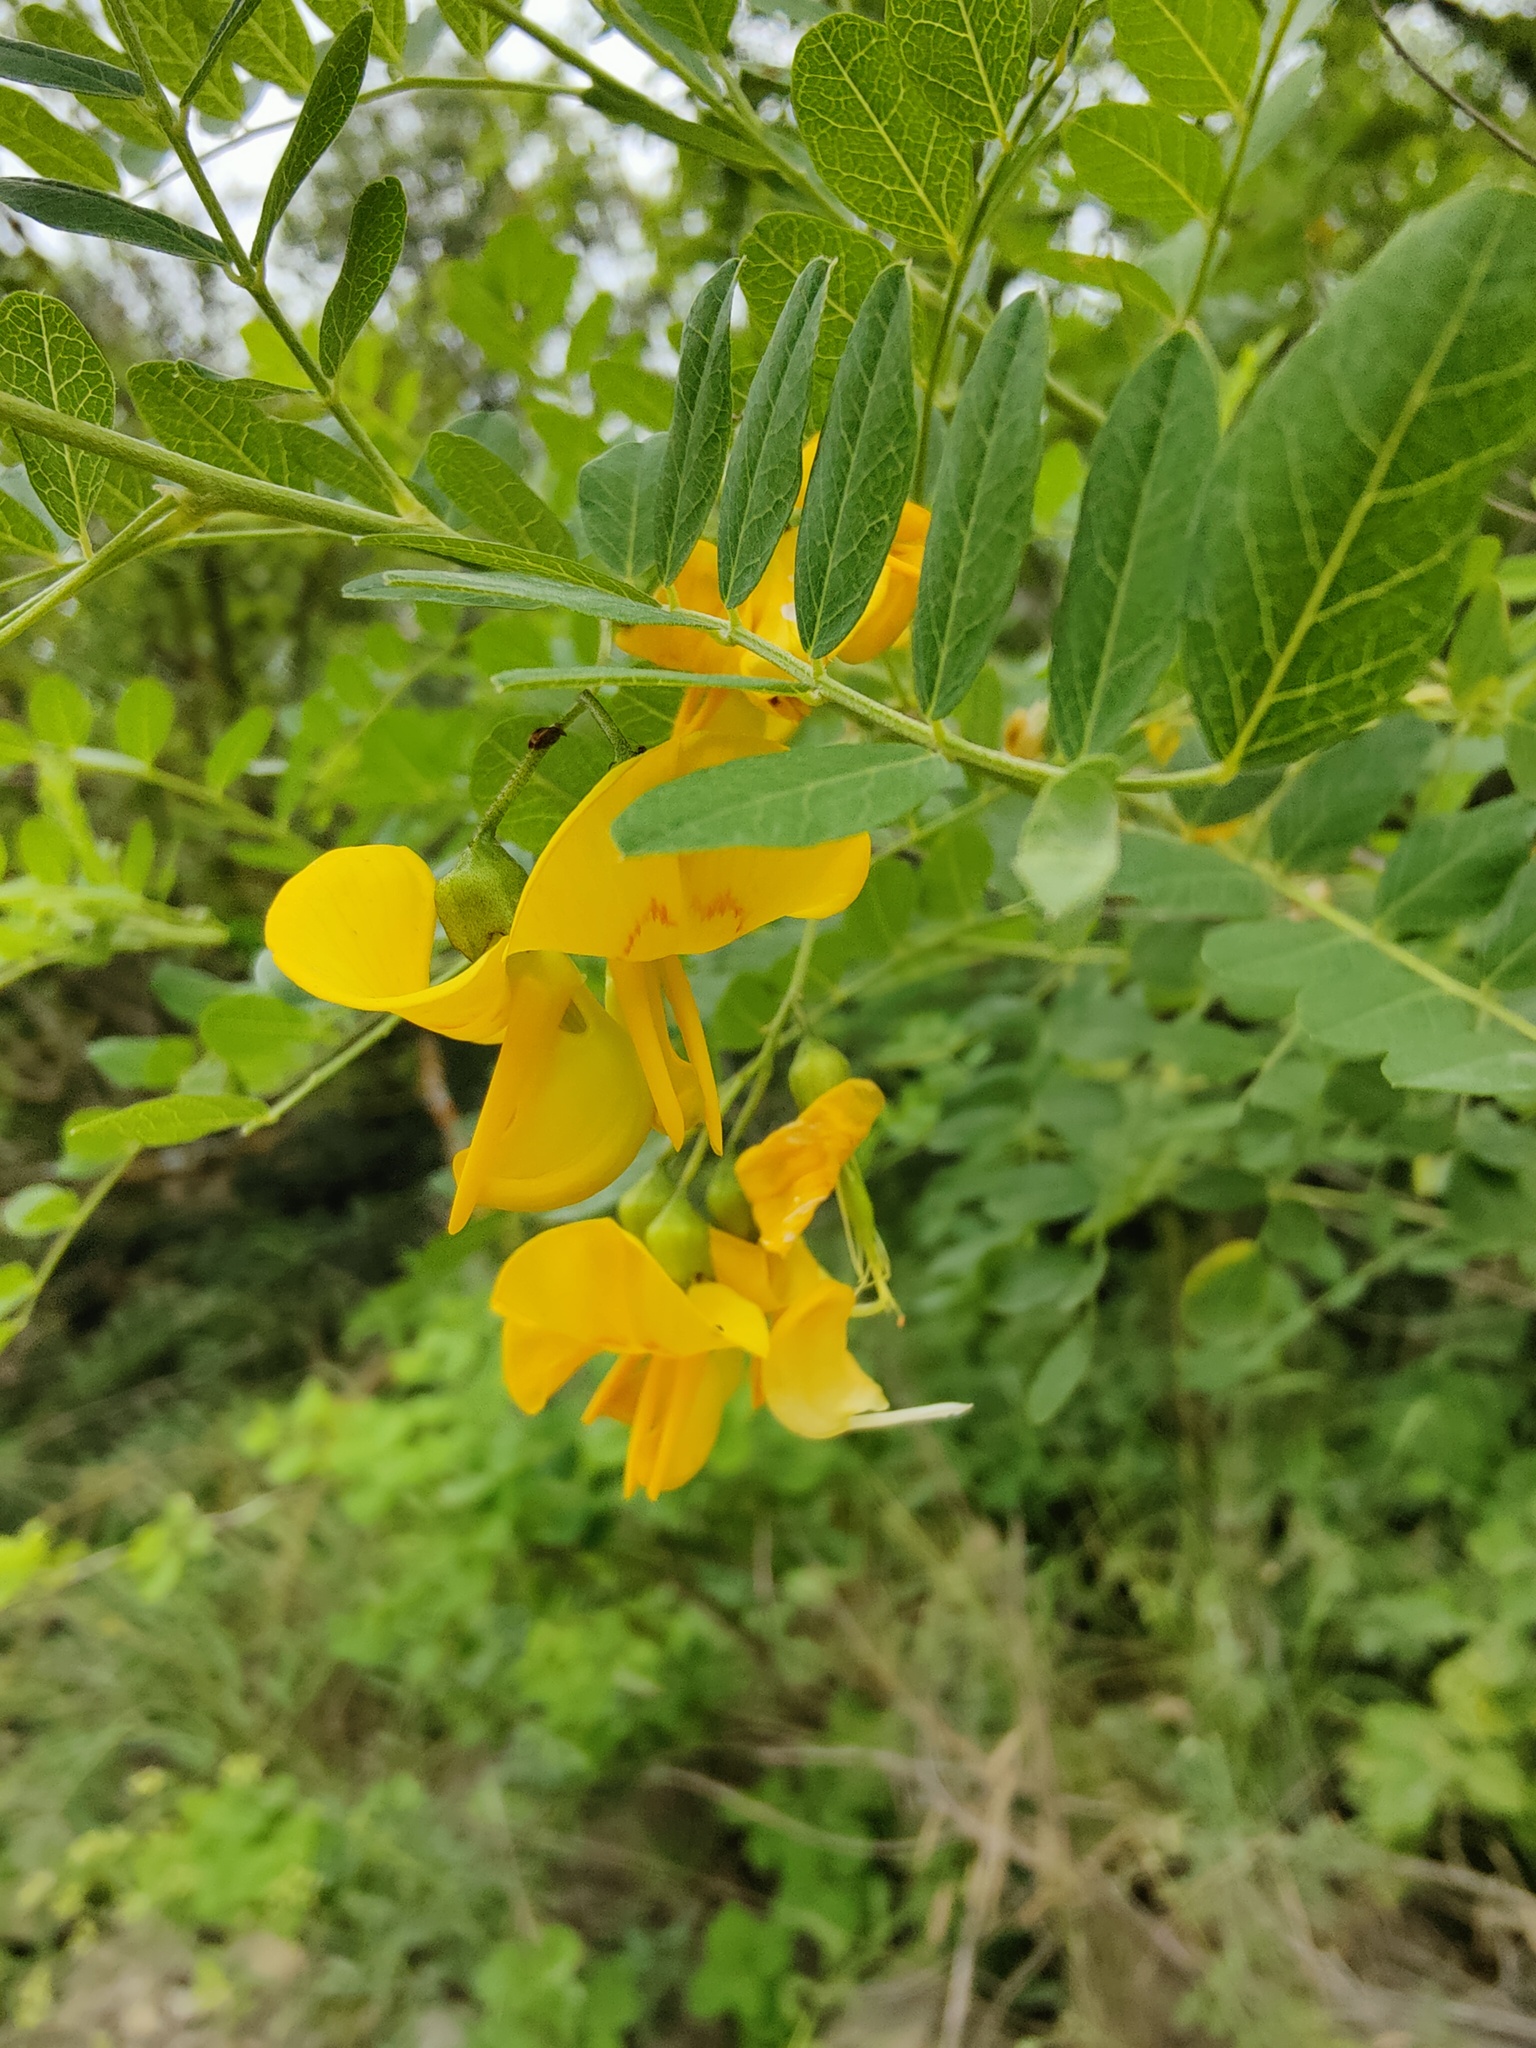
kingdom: Plantae
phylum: Tracheophyta
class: Magnoliopsida
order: Fabales
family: Fabaceae
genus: Colutea
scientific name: Colutea cilicica
